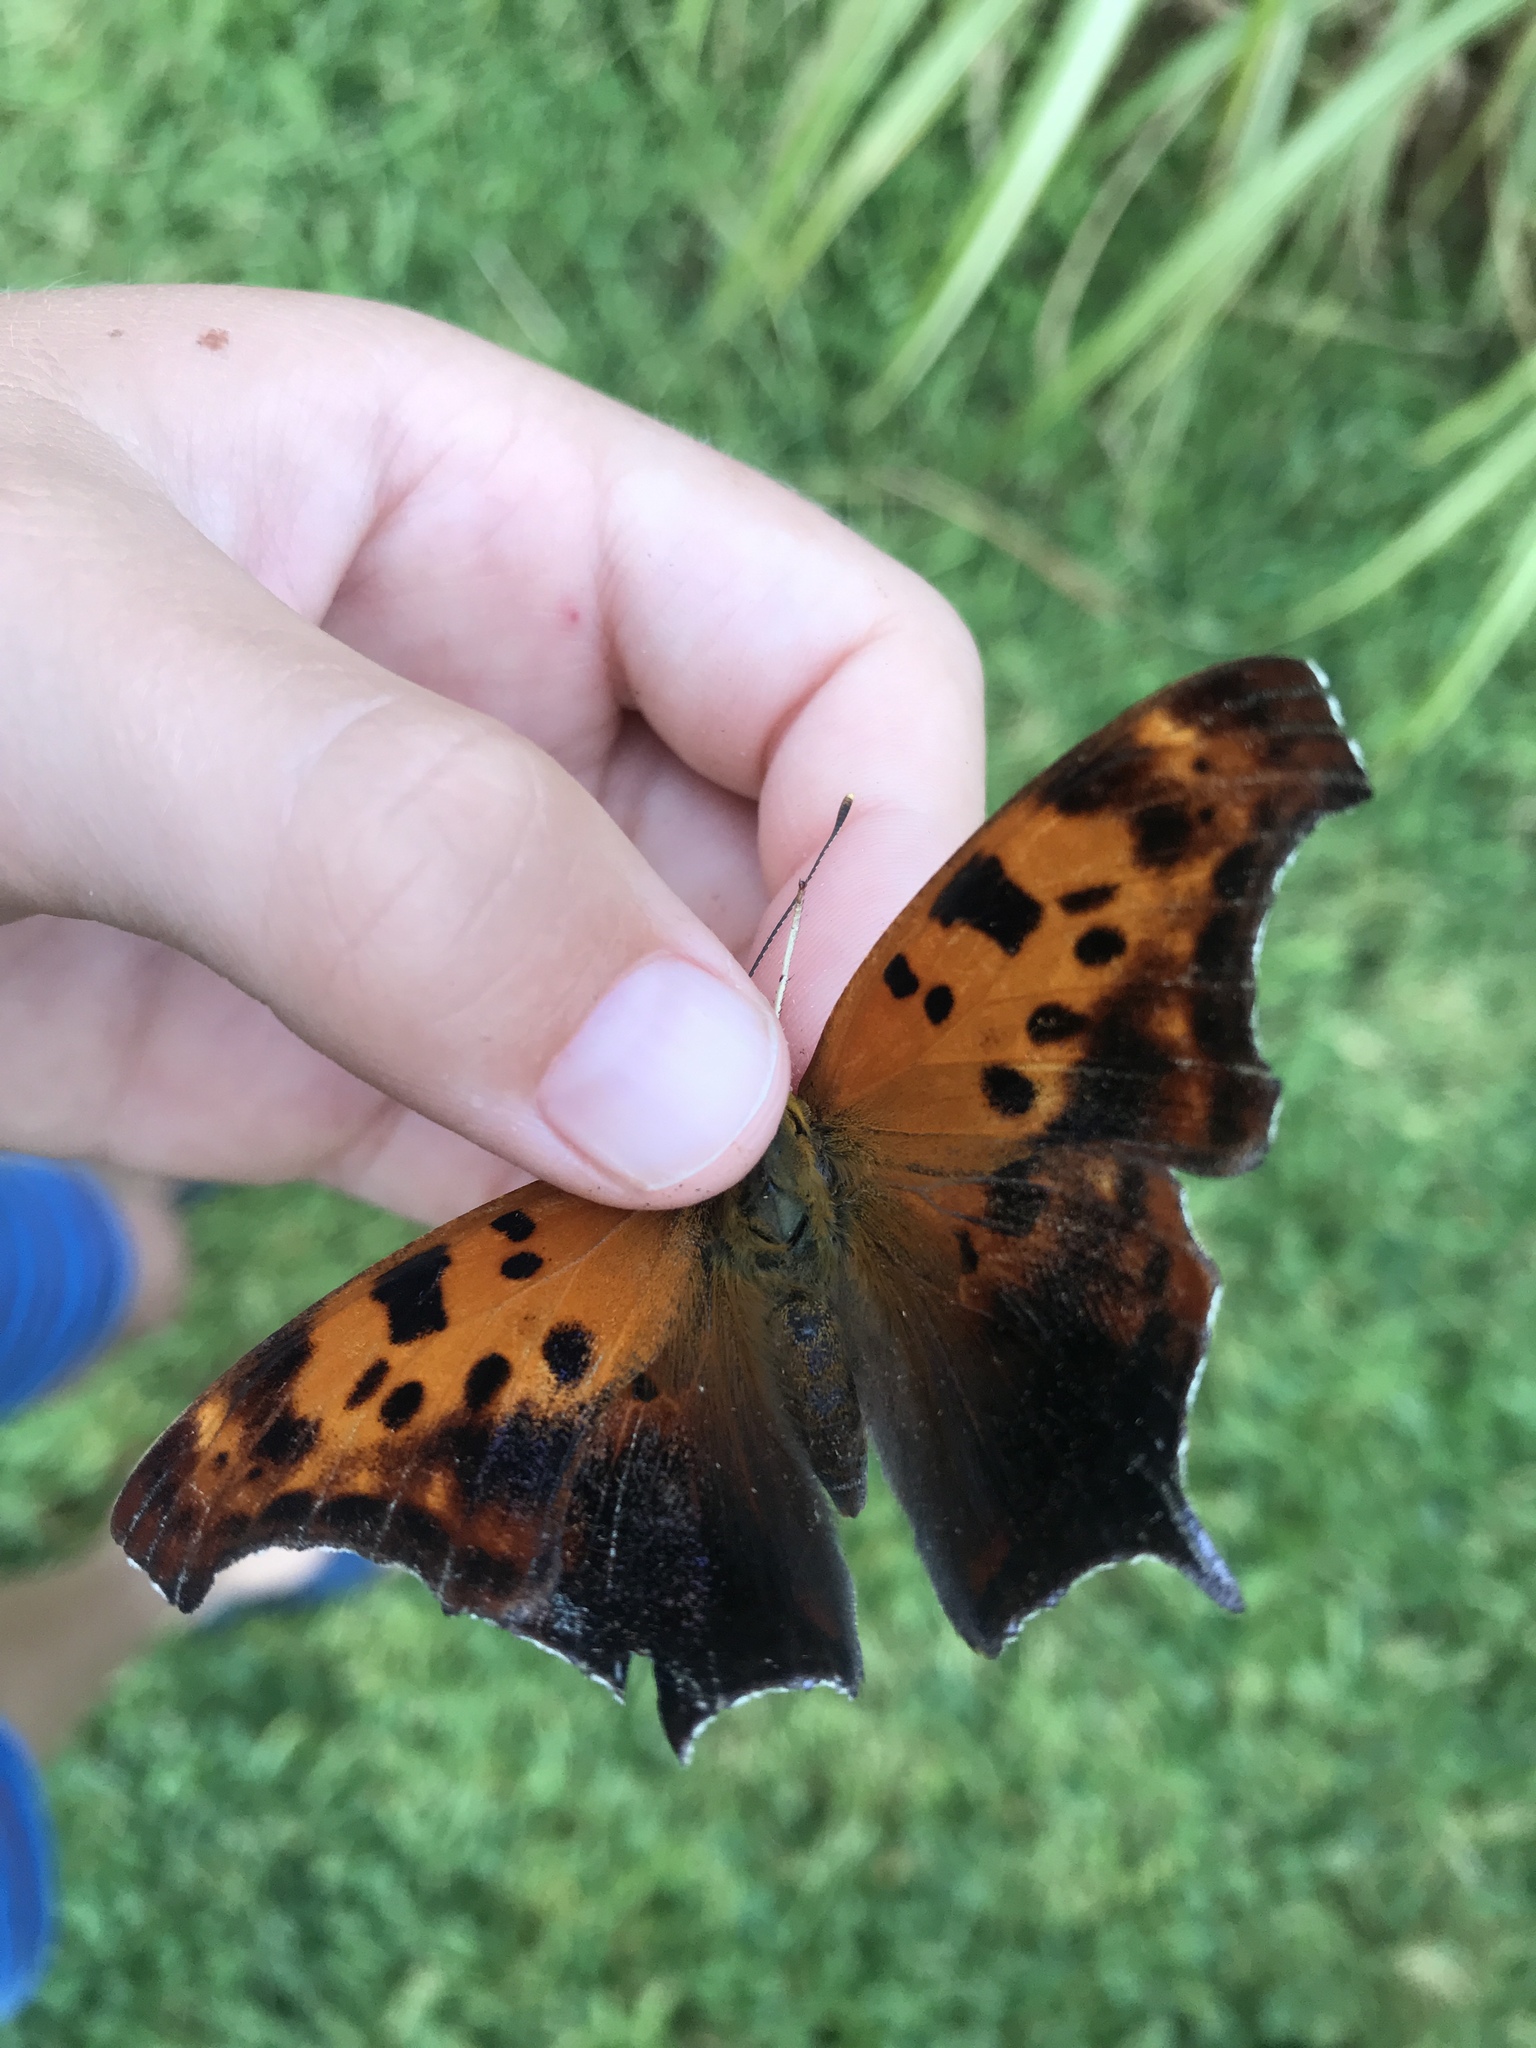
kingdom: Animalia
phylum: Arthropoda
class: Insecta
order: Lepidoptera
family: Nymphalidae
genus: Polygonia
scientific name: Polygonia interrogationis
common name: Question mark
